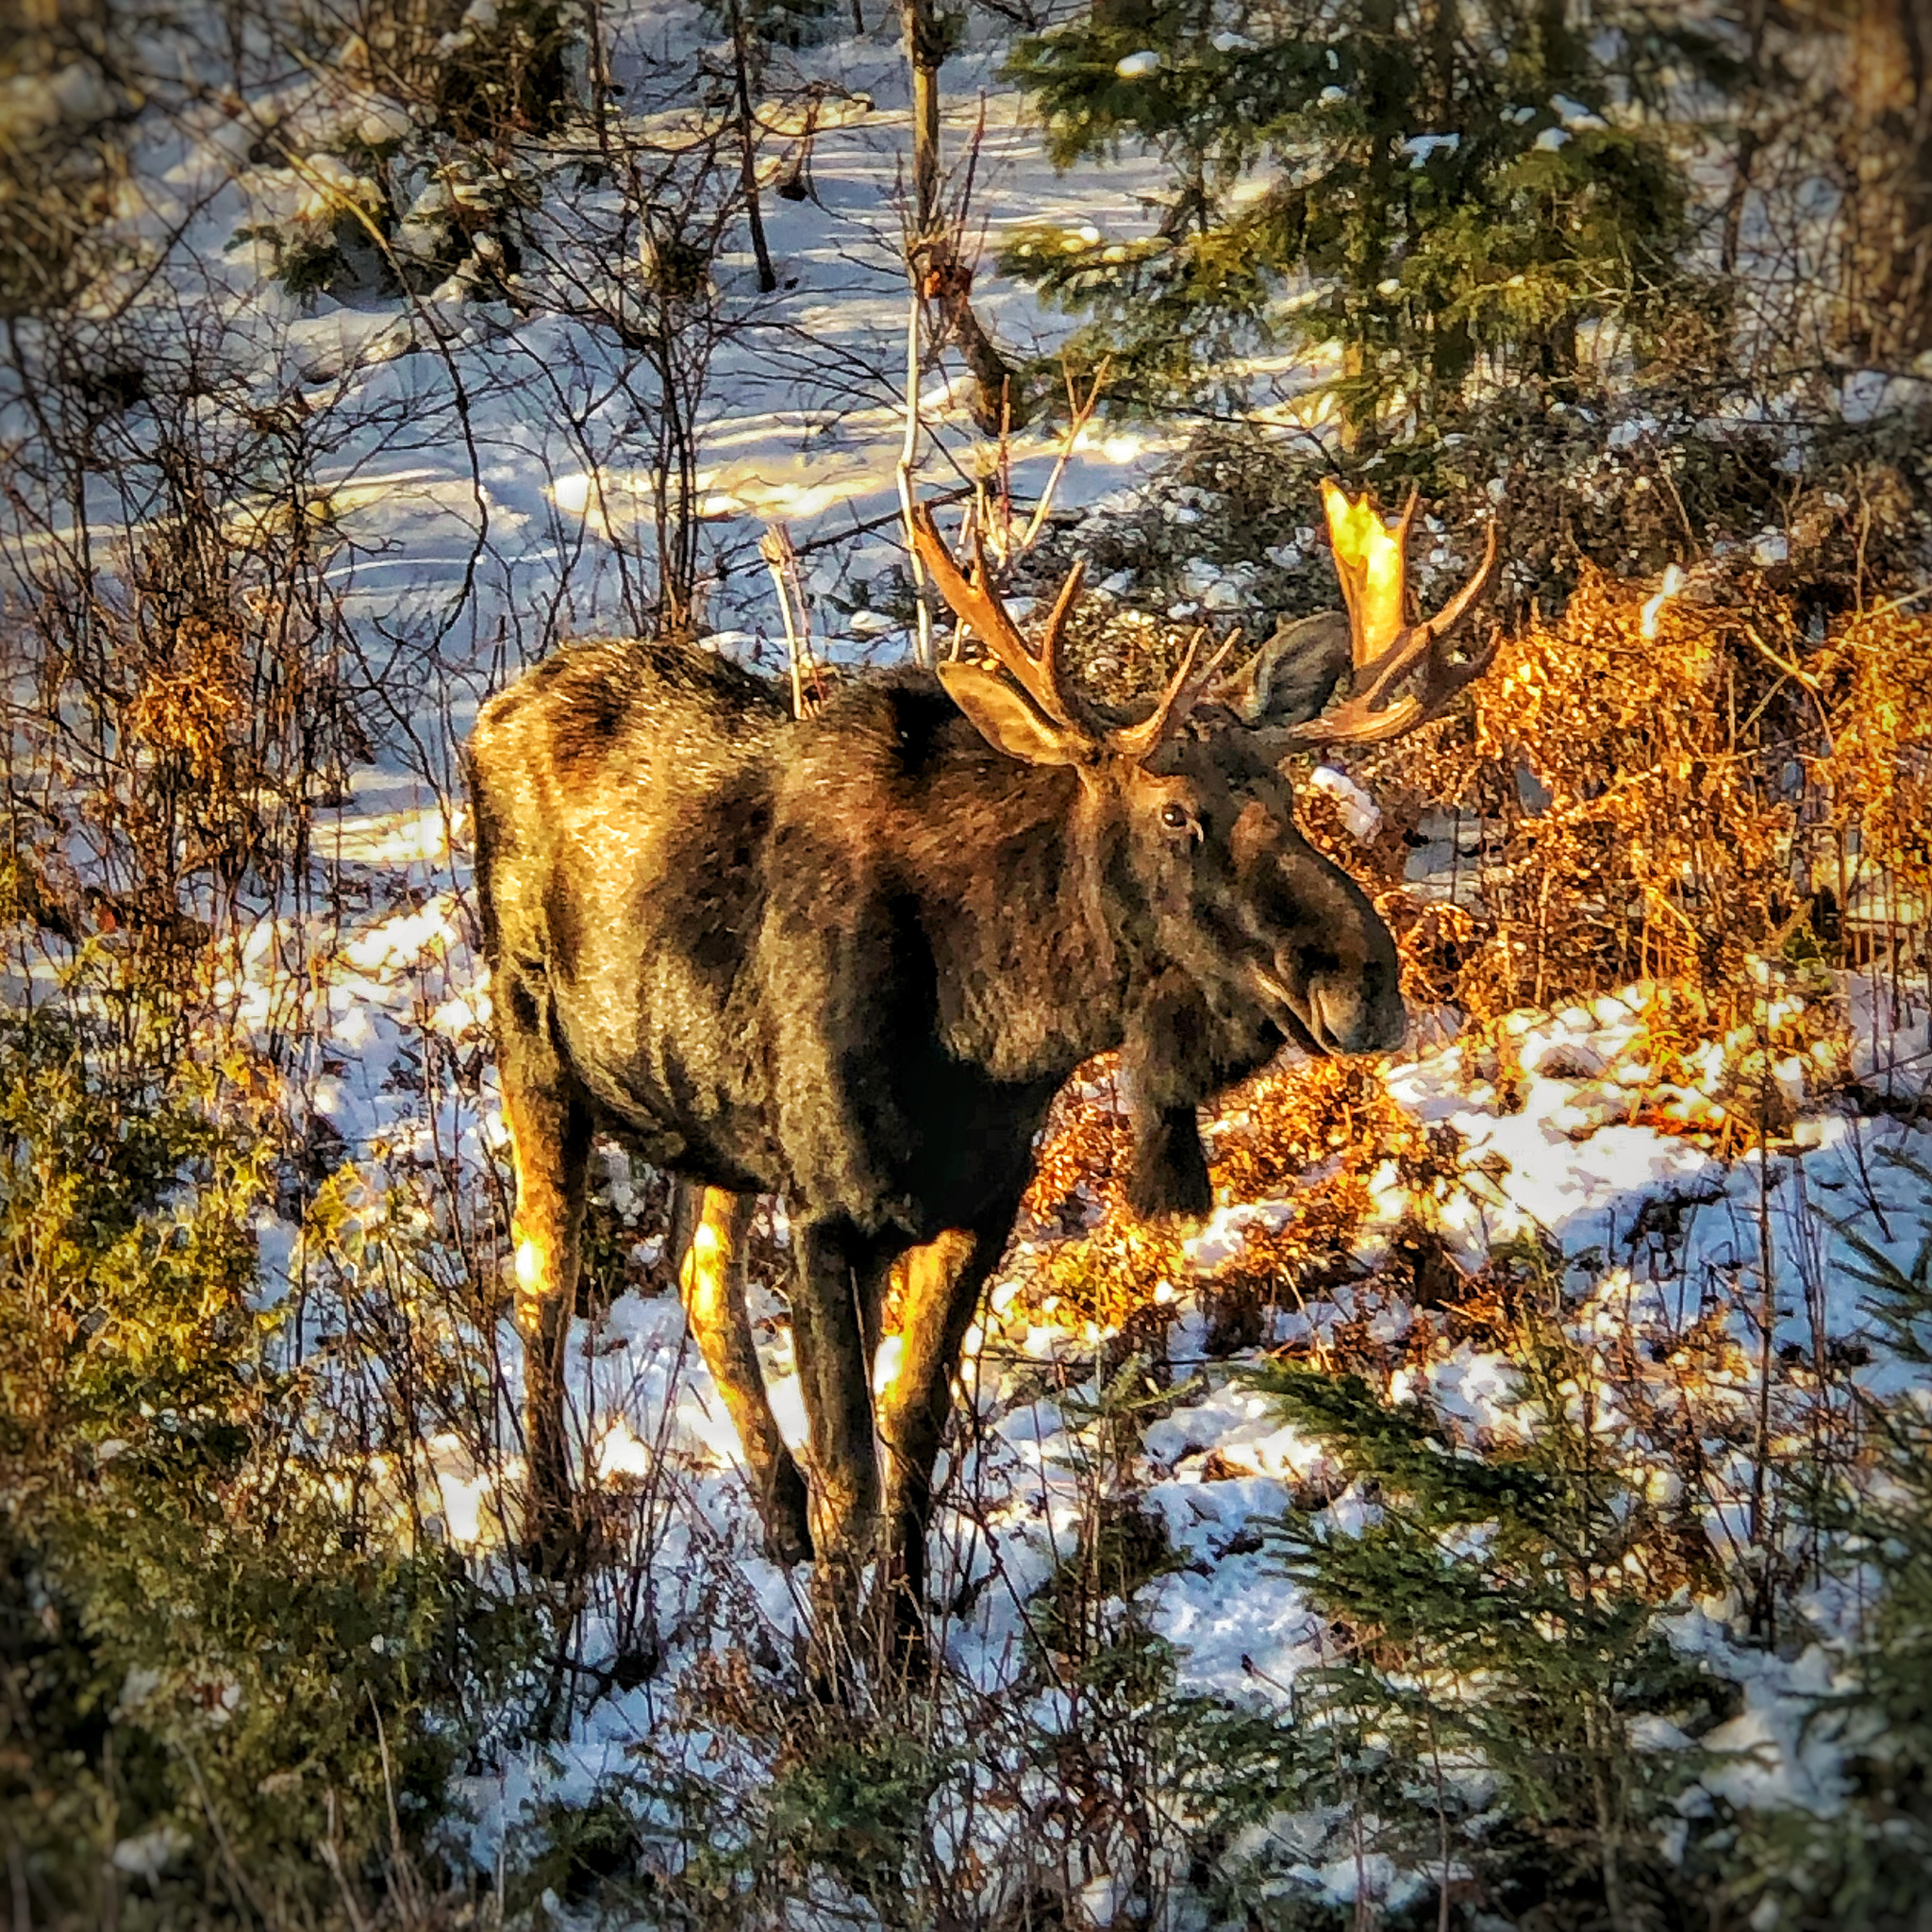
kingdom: Animalia
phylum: Chordata
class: Mammalia
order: Artiodactyla
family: Cervidae
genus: Alces
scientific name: Alces alces
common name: Moose
